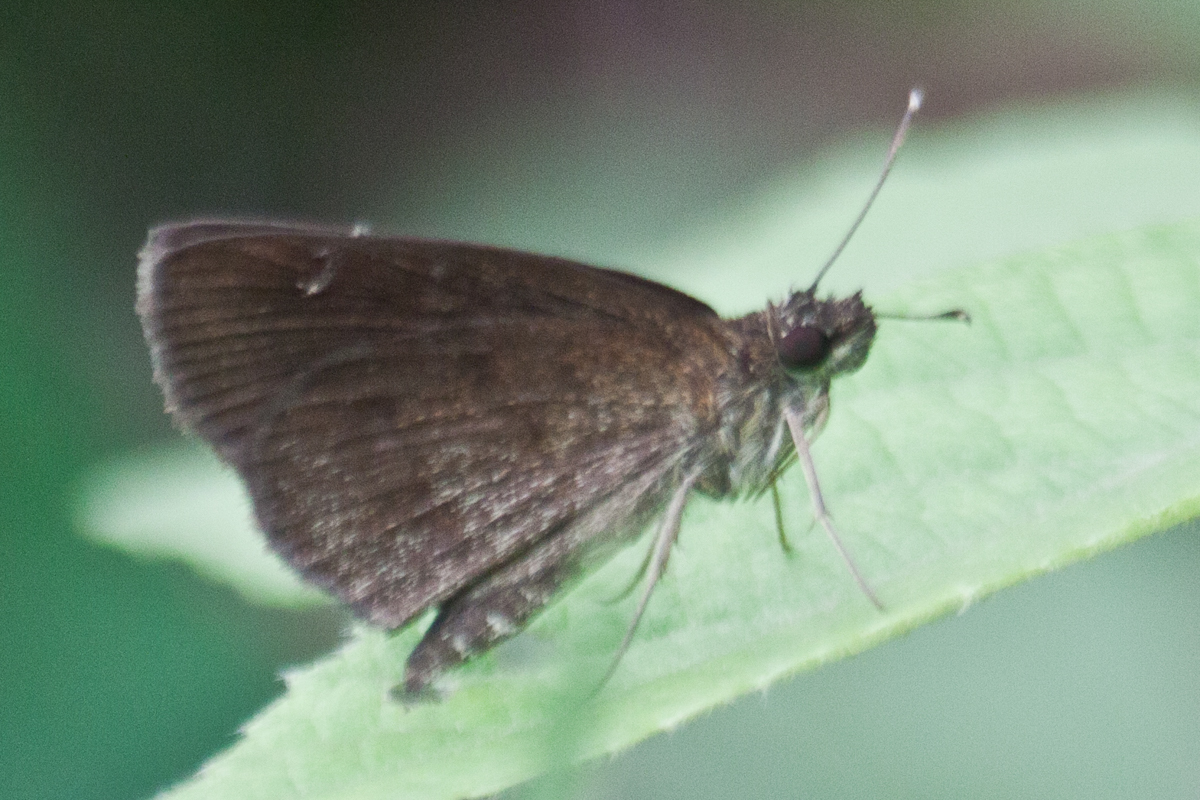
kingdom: Animalia
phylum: Arthropoda
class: Insecta
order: Lepidoptera
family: Hesperiidae
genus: Astictopterus
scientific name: Astictopterus jama
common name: Forest hopper
